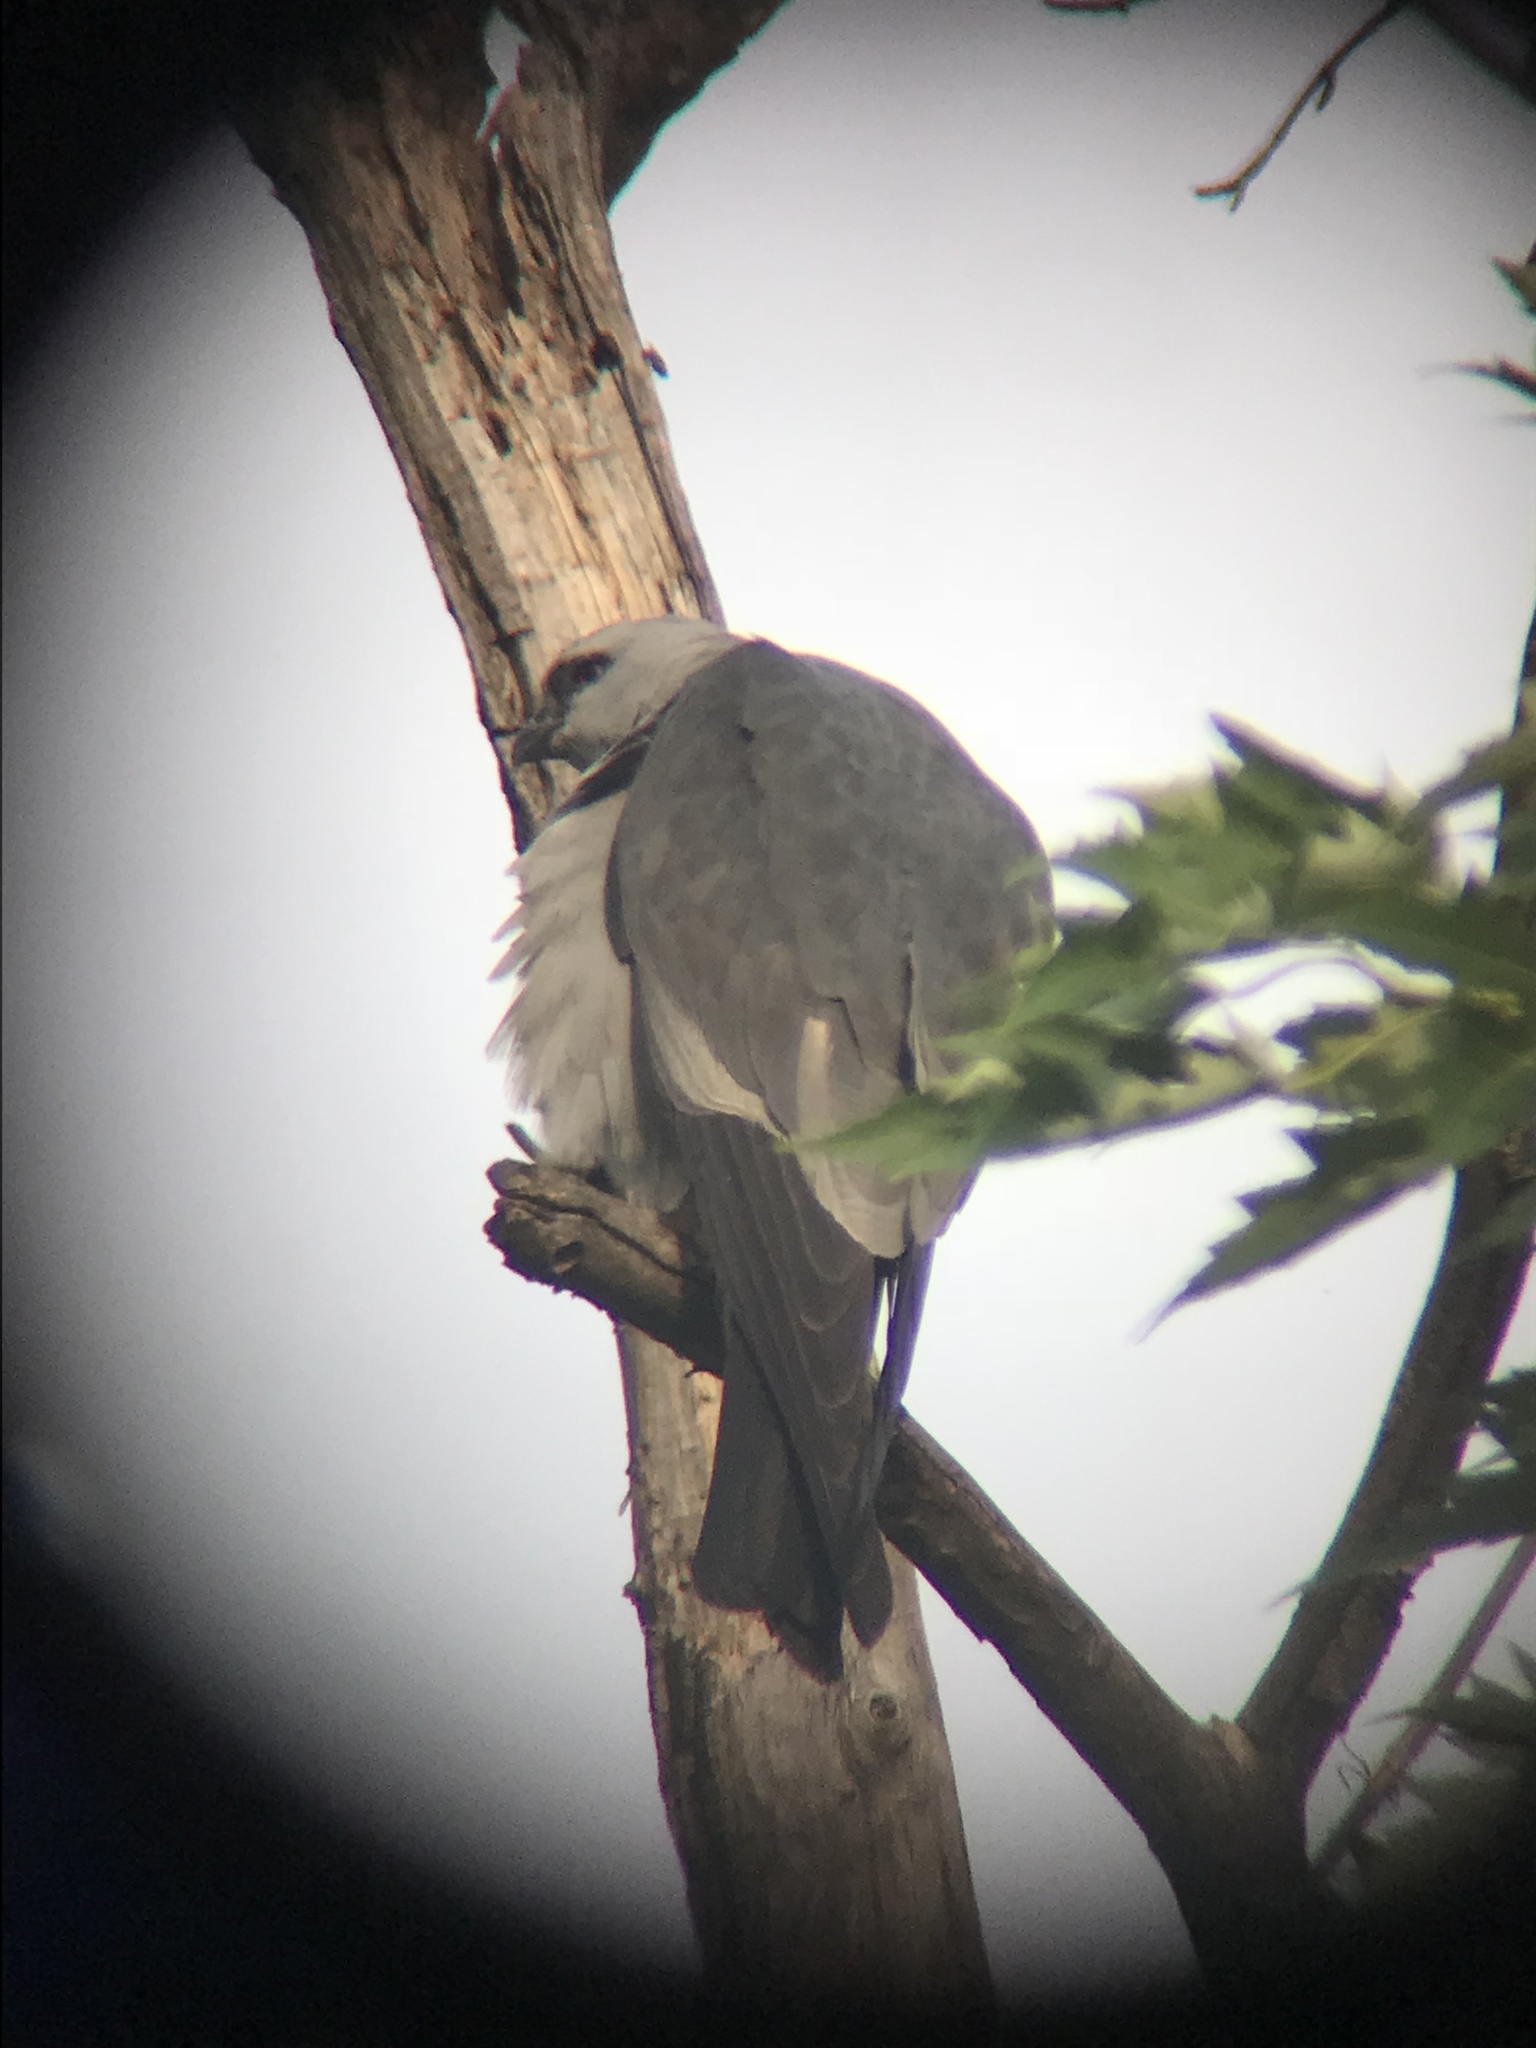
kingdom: Animalia
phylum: Chordata
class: Aves
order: Accipitriformes
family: Accipitridae
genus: Ictinia
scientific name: Ictinia mississippiensis
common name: Mississippi kite
